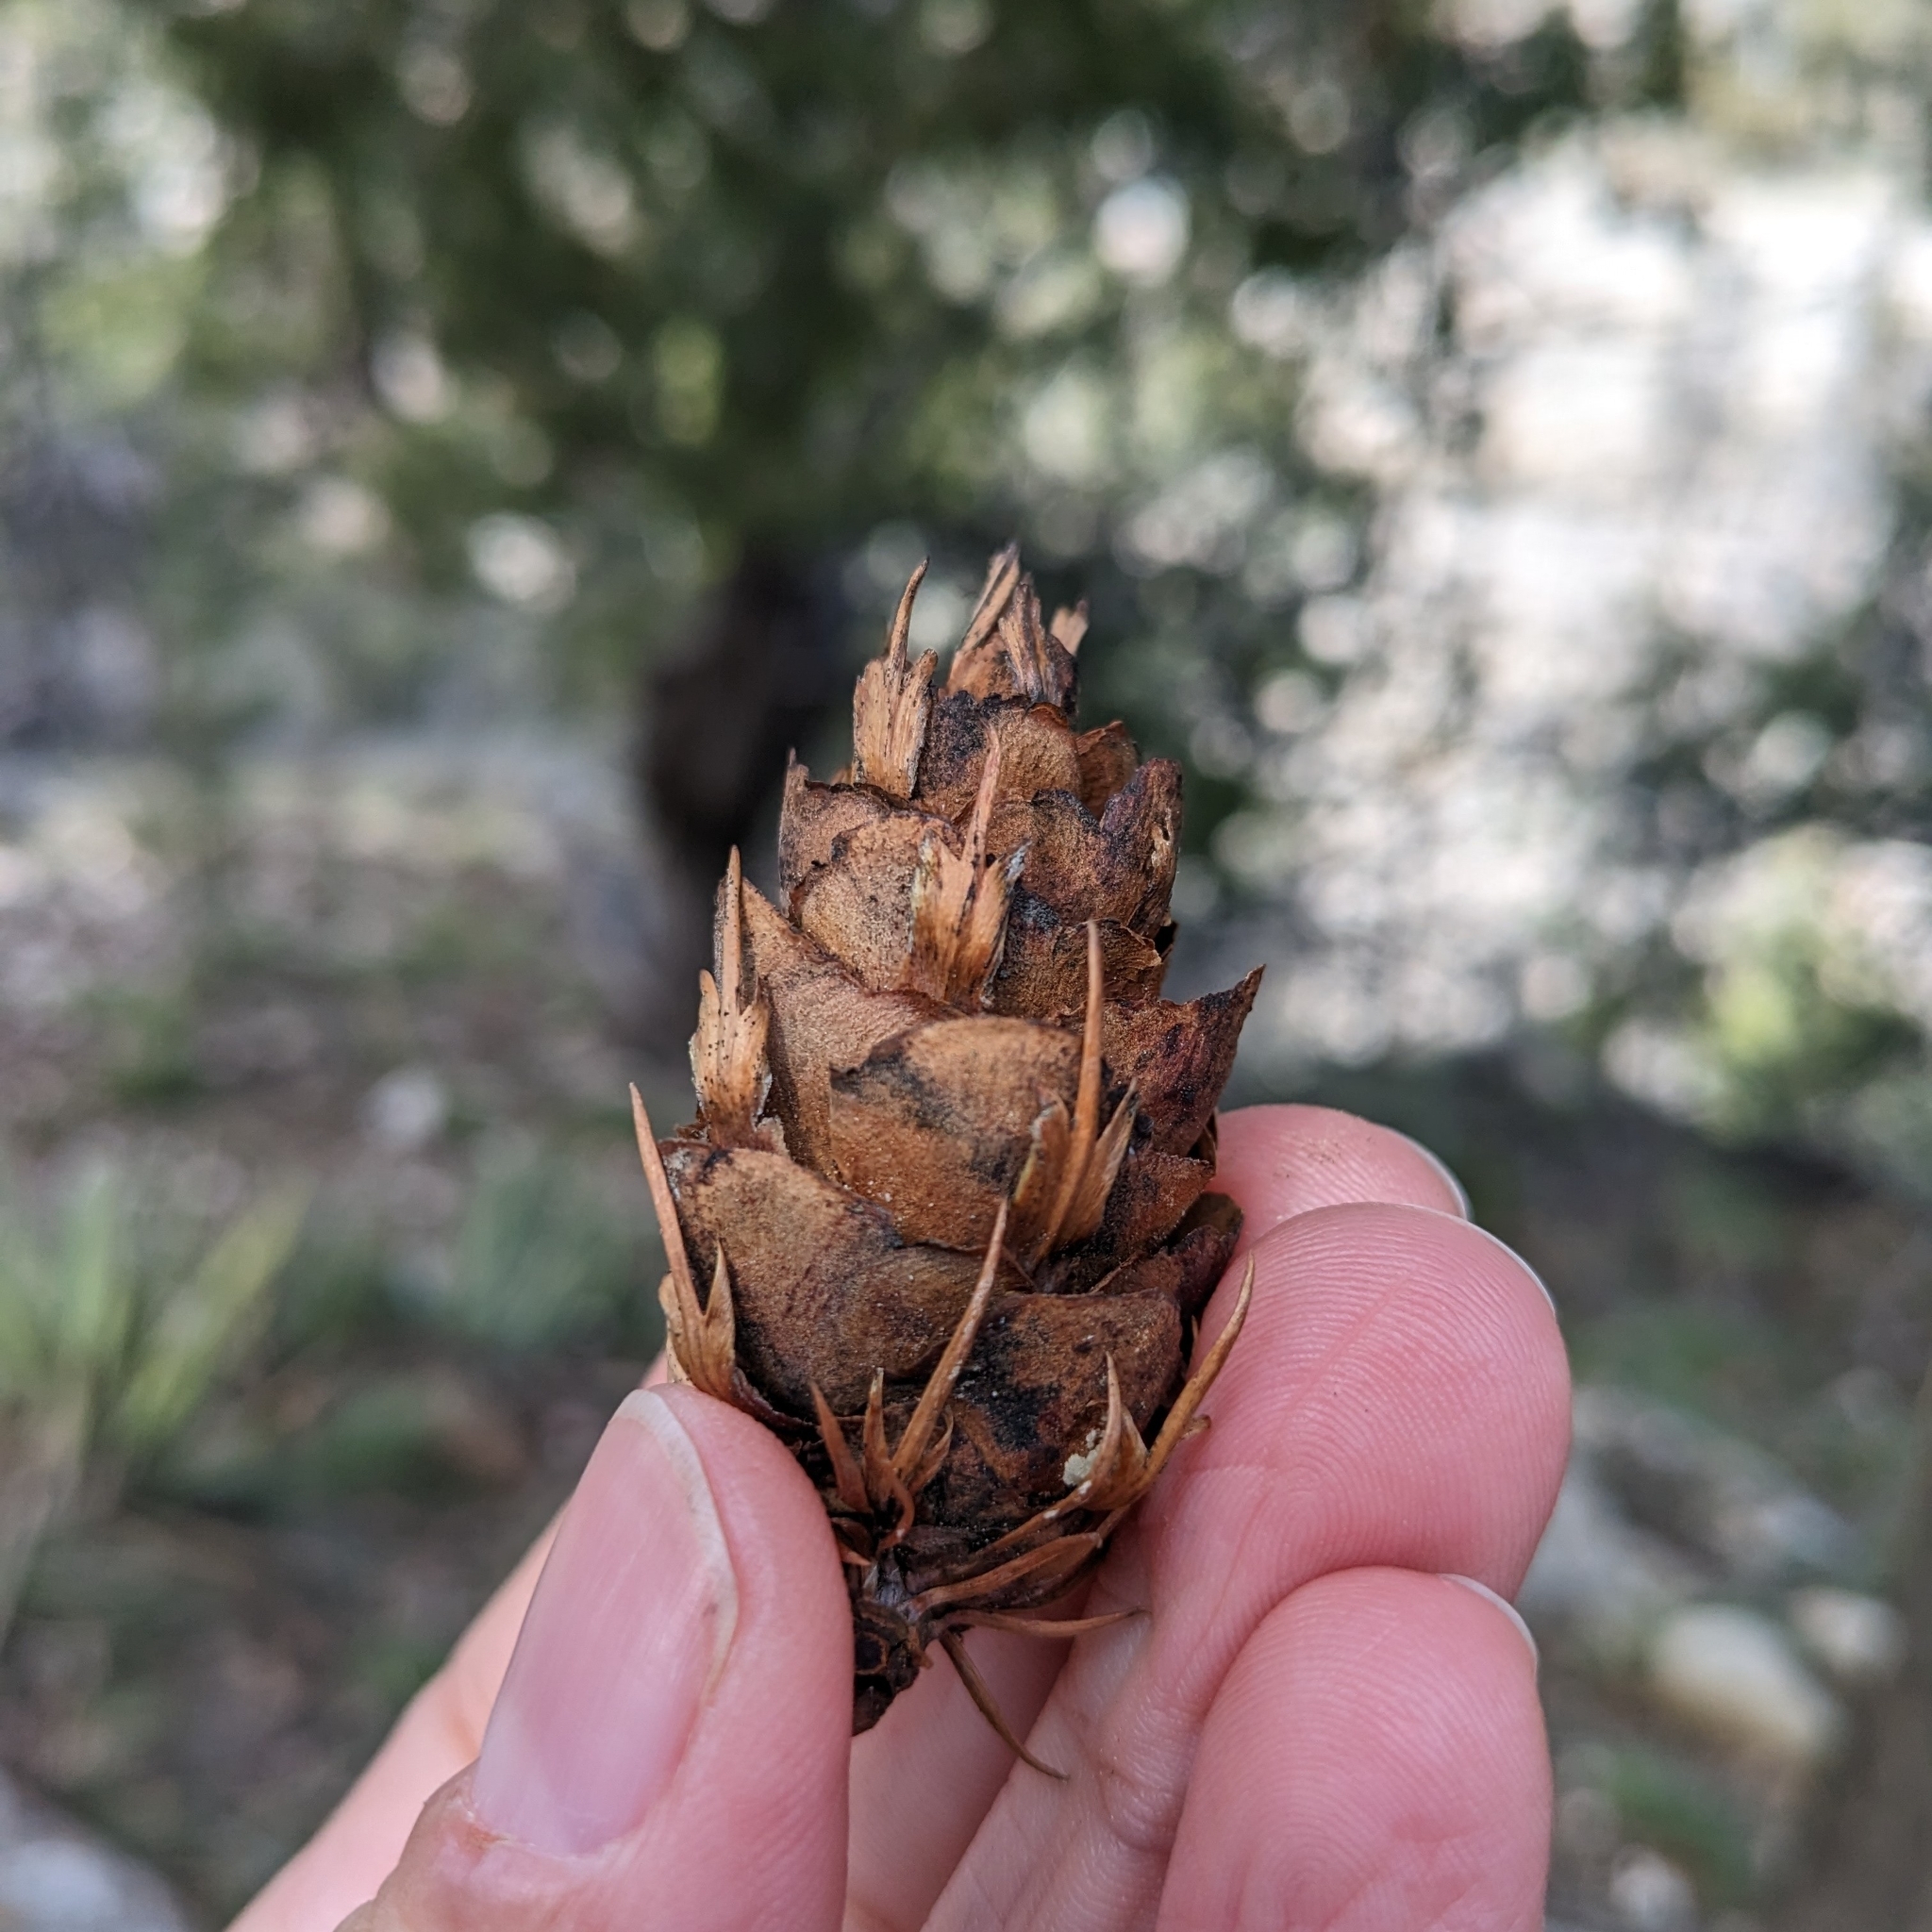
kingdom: Plantae
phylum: Tracheophyta
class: Pinopsida
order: Pinales
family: Pinaceae
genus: Pseudotsuga
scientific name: Pseudotsuga menziesii
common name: Douglas fir
